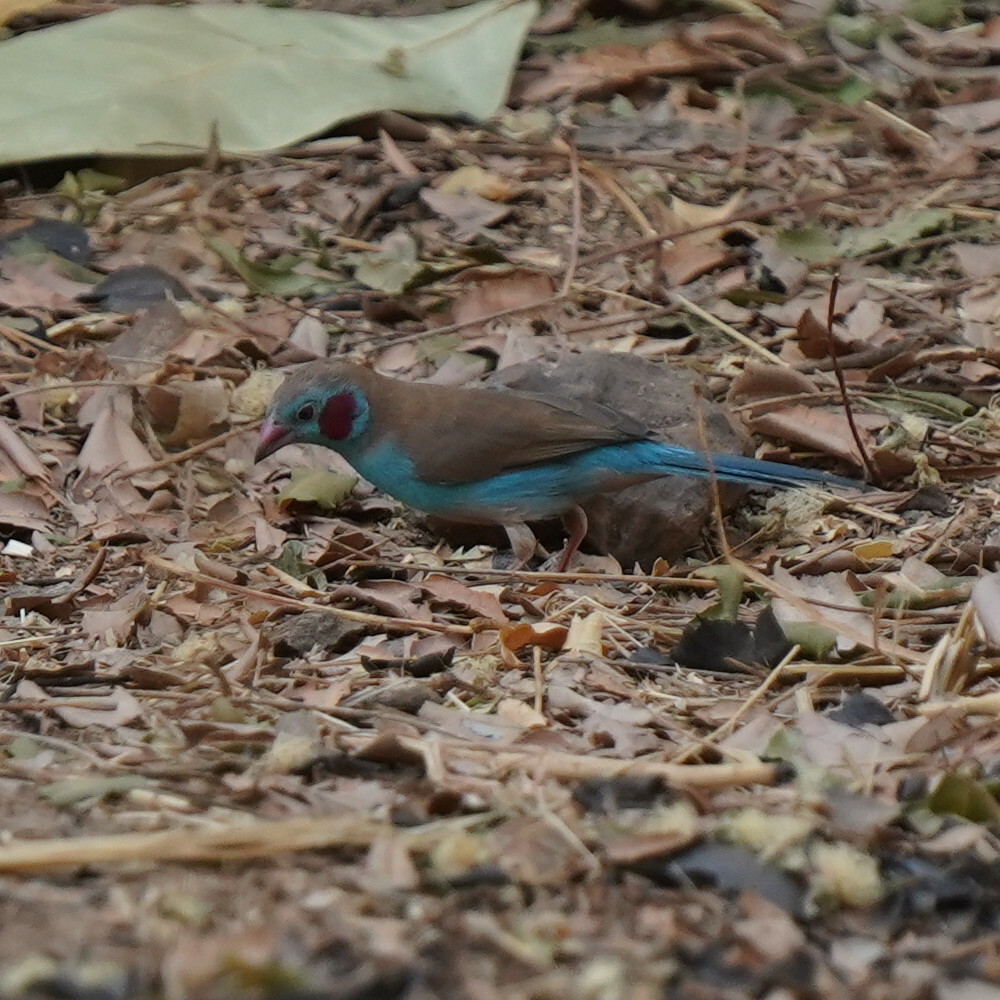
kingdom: Animalia
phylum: Chordata
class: Aves
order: Passeriformes
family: Estrildidae
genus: Uraeginthus
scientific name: Uraeginthus bengalus
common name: Red-cheeked cordon-bleu
